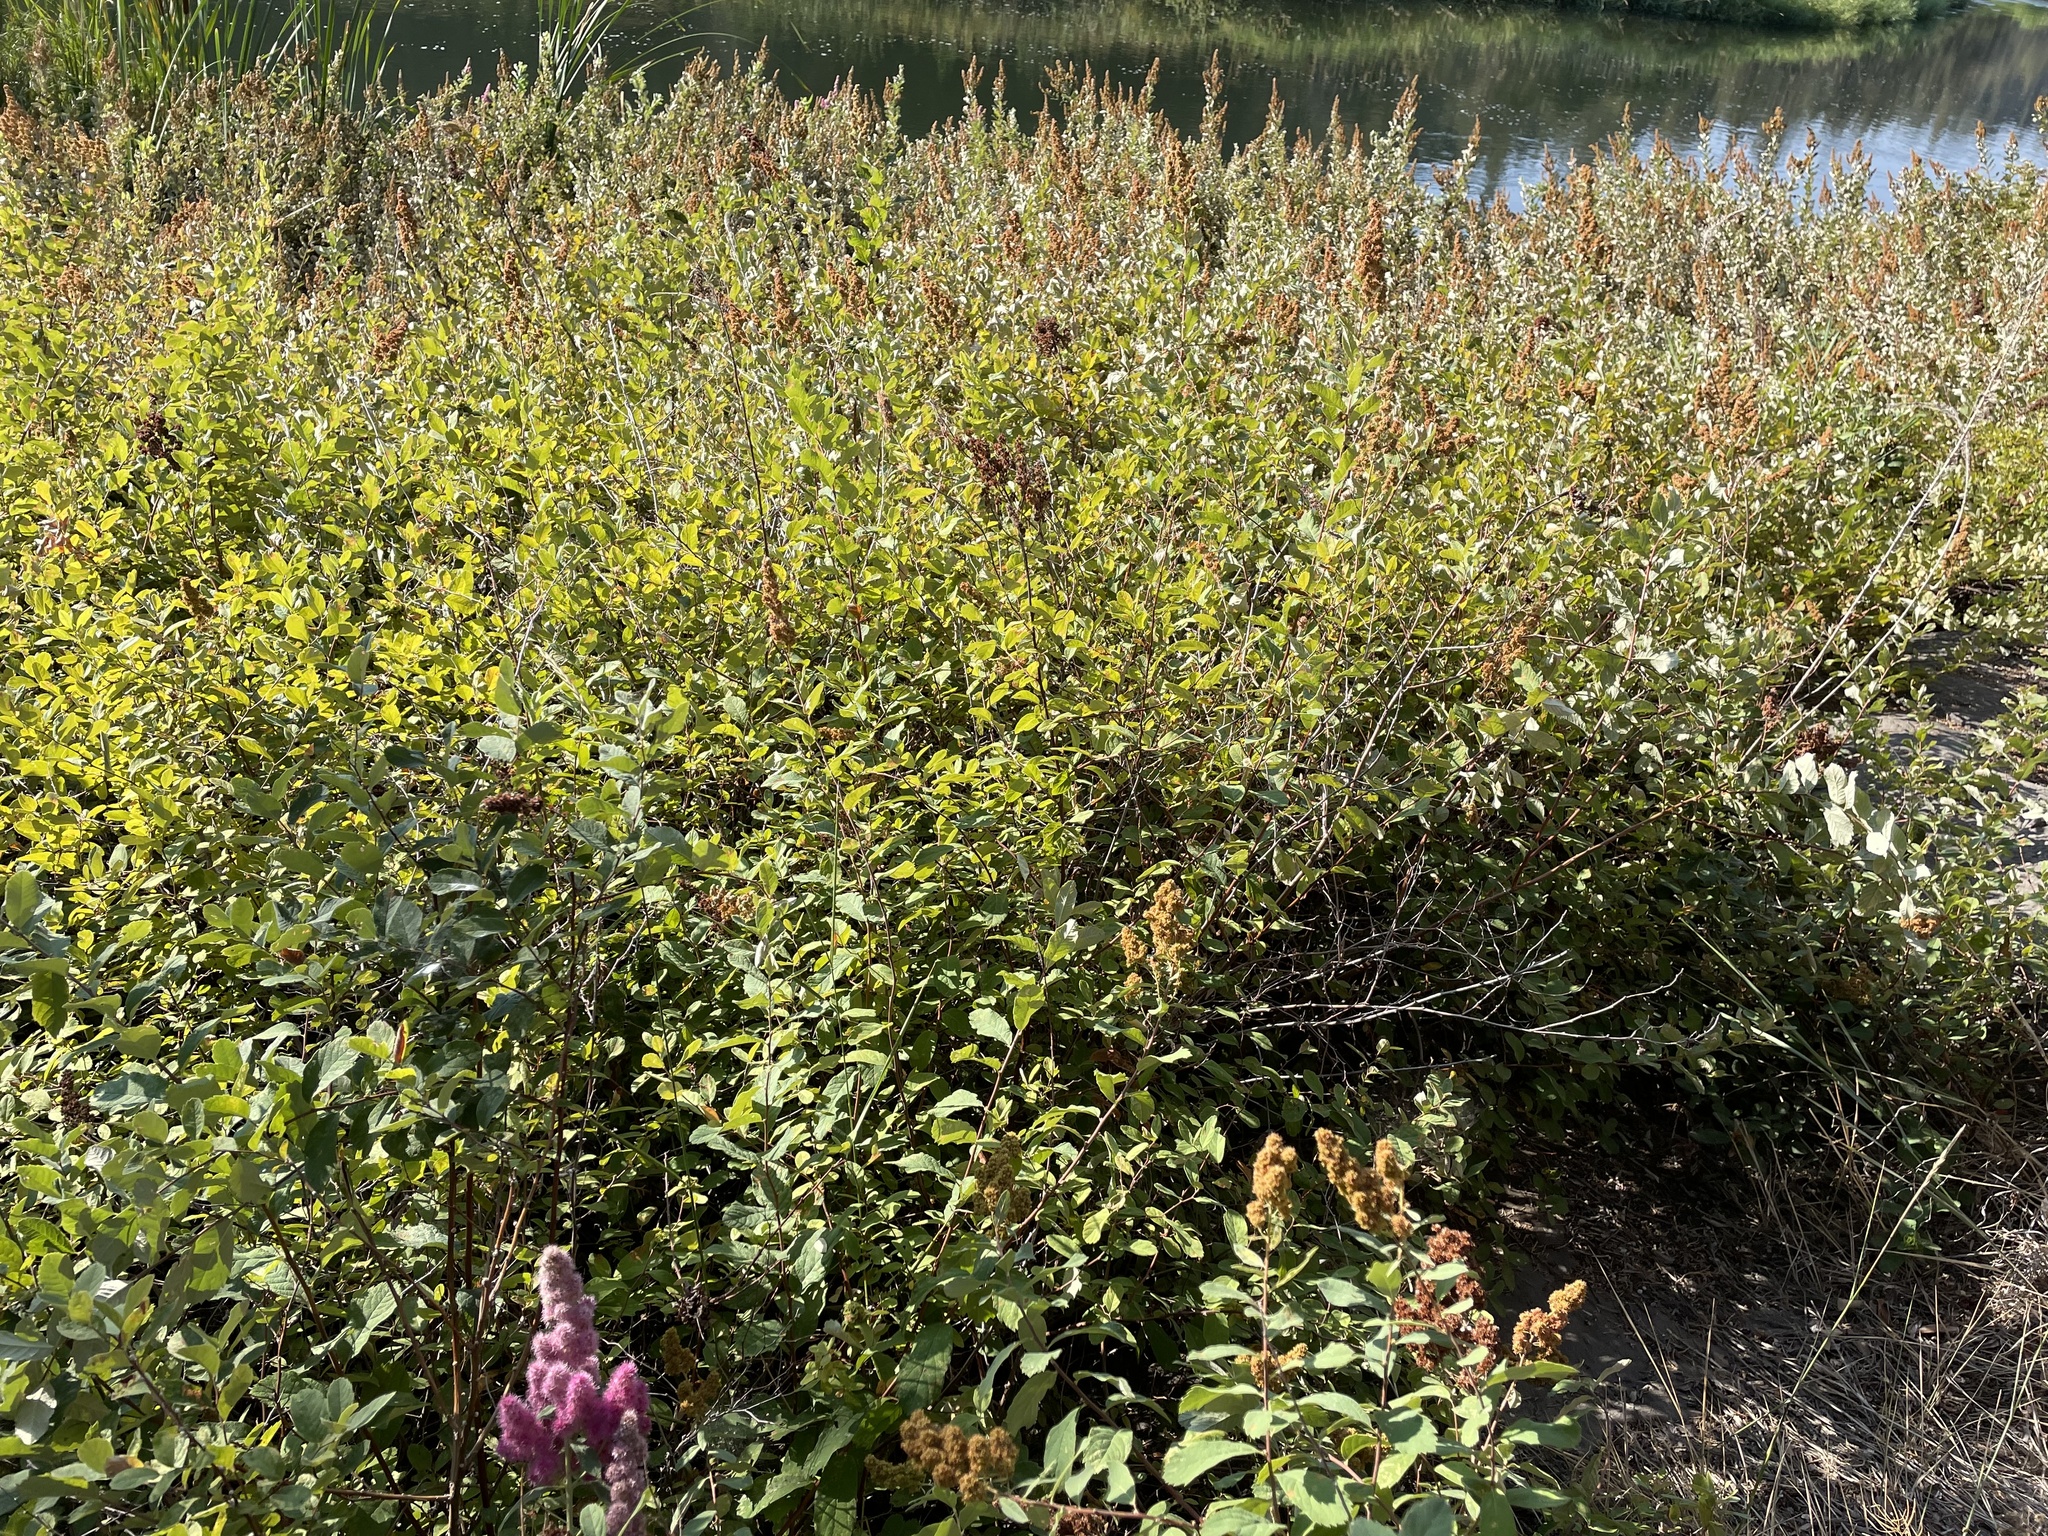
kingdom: Plantae
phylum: Tracheophyta
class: Magnoliopsida
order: Rosales
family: Rosaceae
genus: Spiraea
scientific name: Spiraea douglasii
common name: Steeplebush
